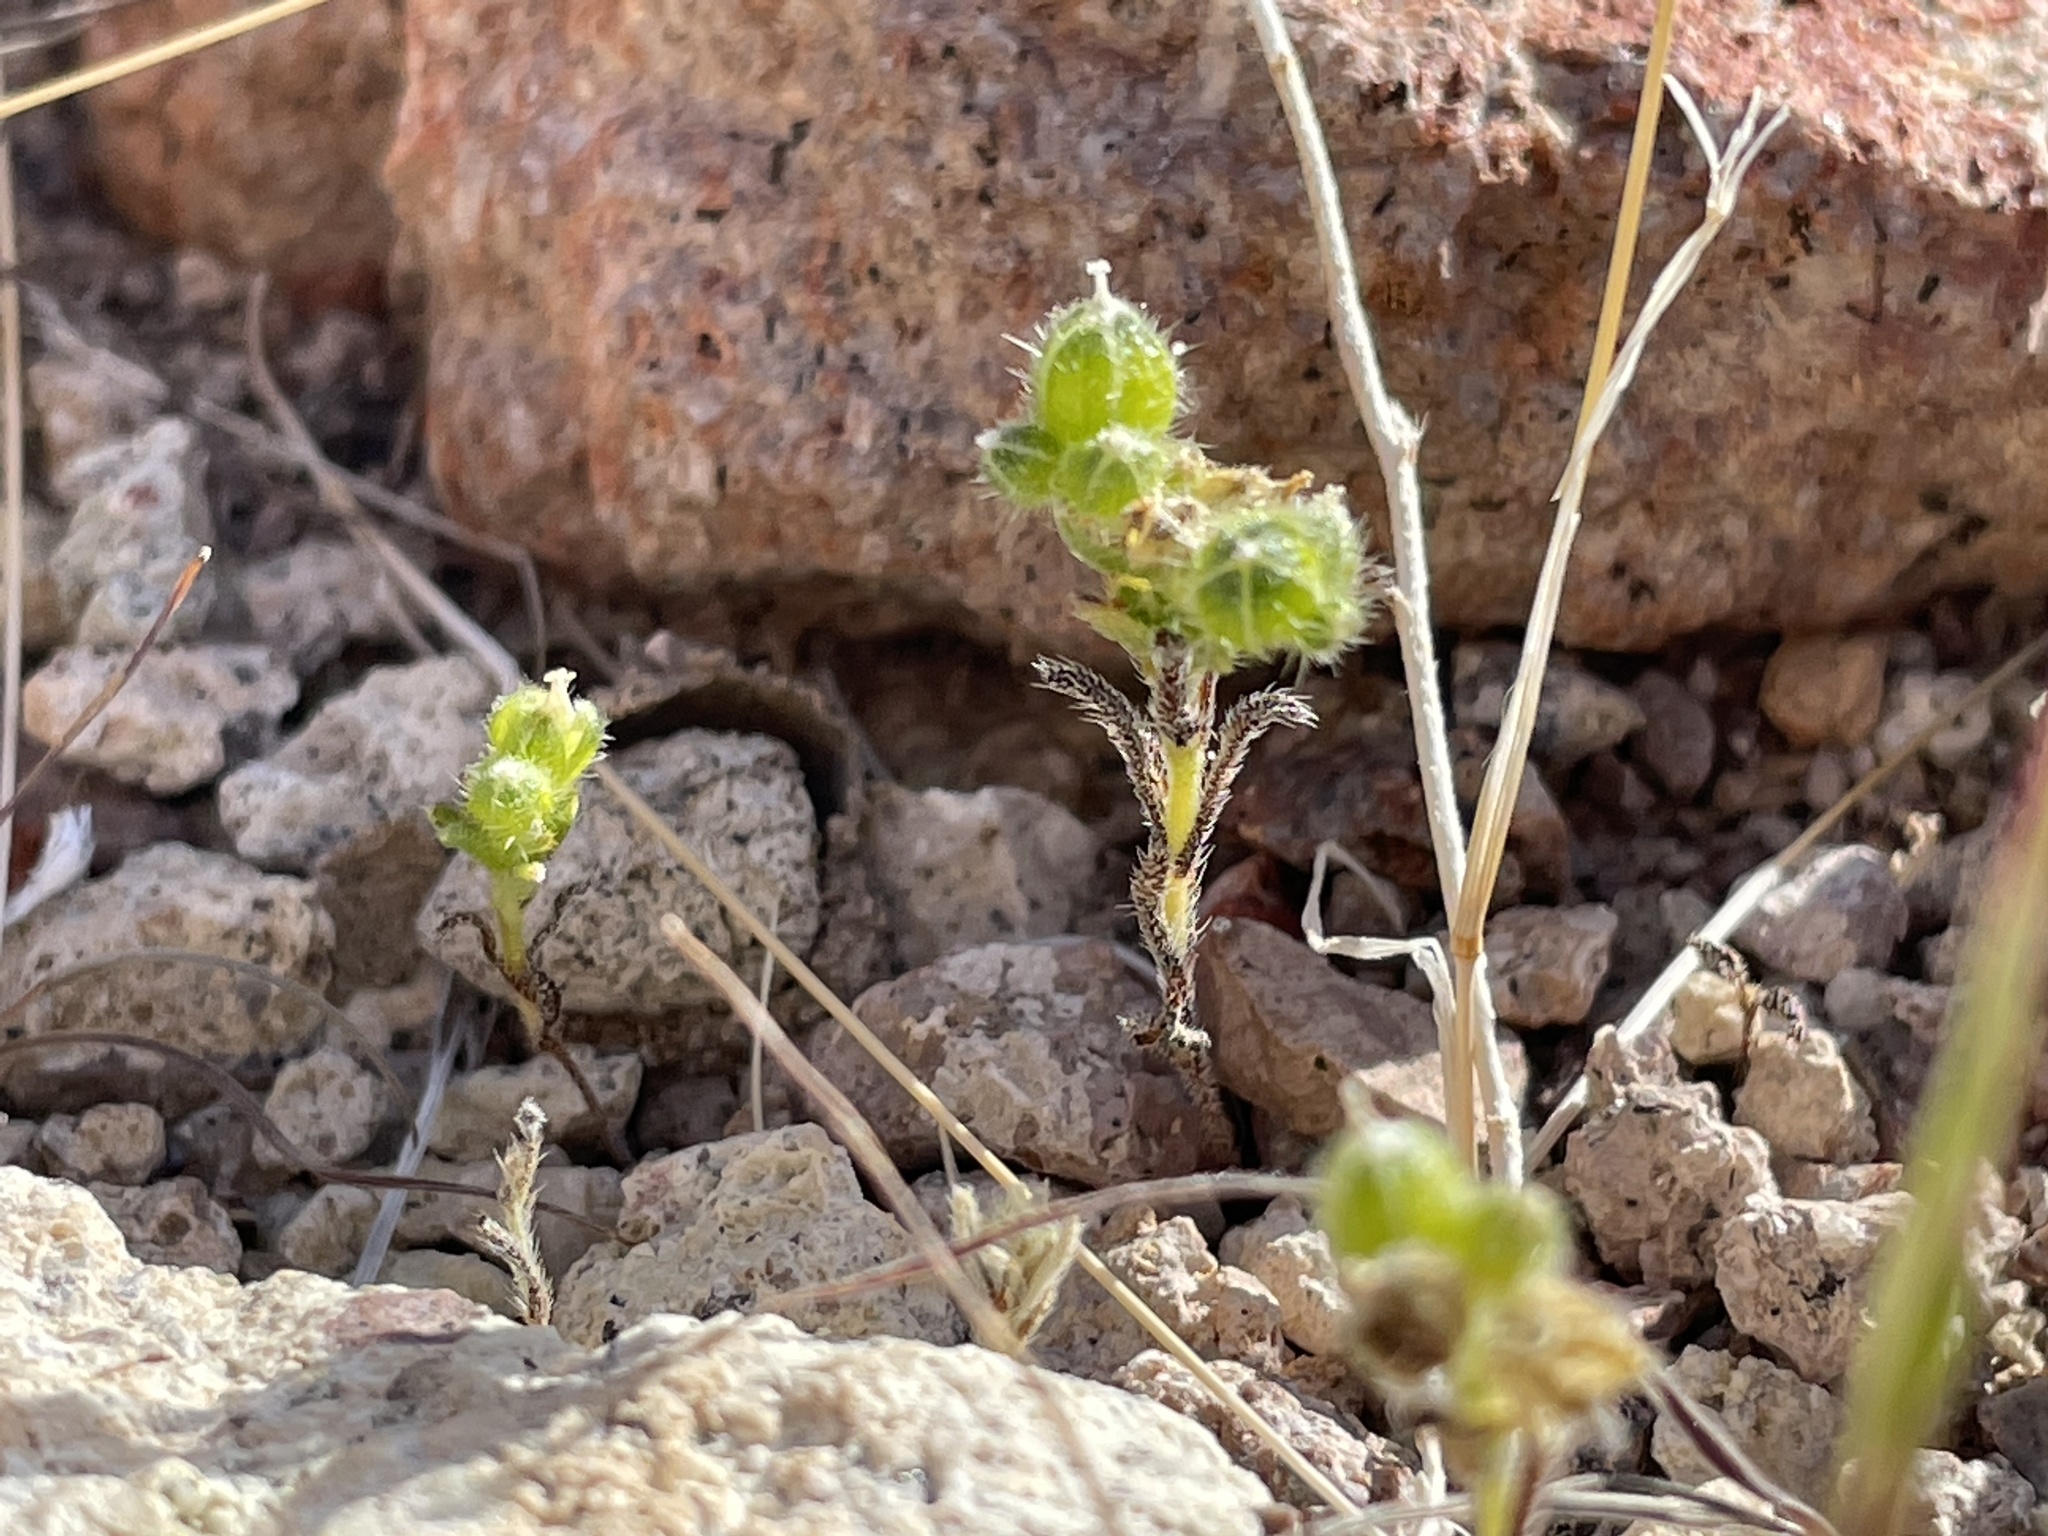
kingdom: Plantae
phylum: Tracheophyta
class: Magnoliopsida
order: Boraginales
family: Boraginaceae
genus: Cryptantha
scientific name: Cryptantha pterocarya
